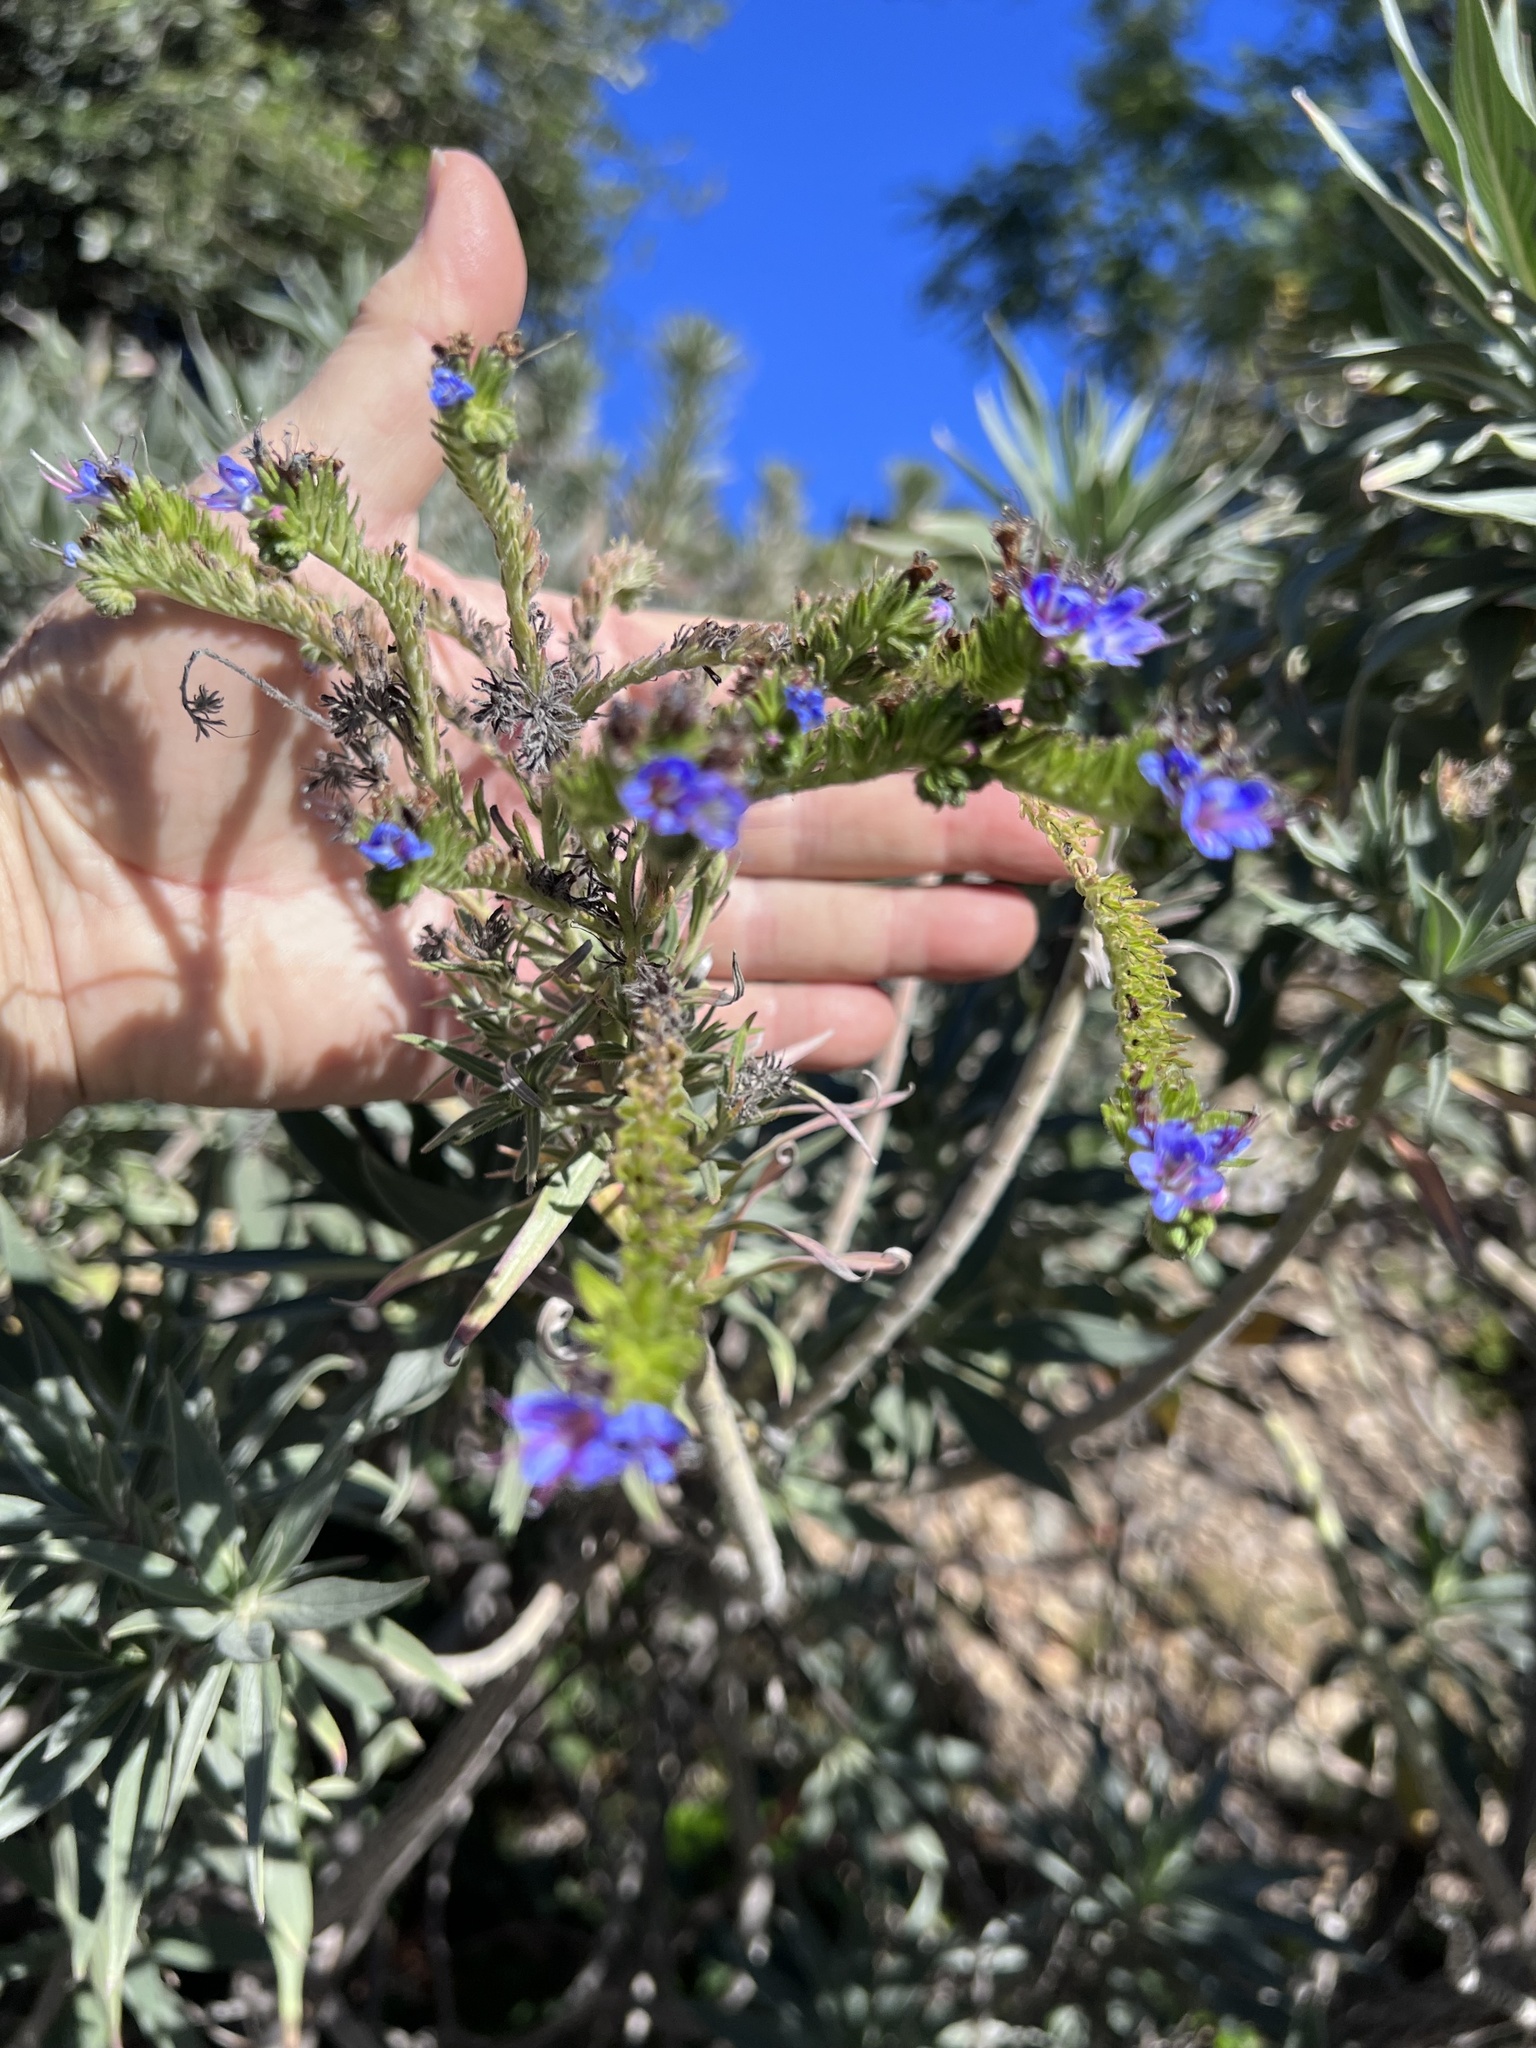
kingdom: Plantae
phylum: Tracheophyta
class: Magnoliopsida
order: Boraginales
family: Boraginaceae
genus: Echium
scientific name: Echium candicans
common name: Pride of madeira
